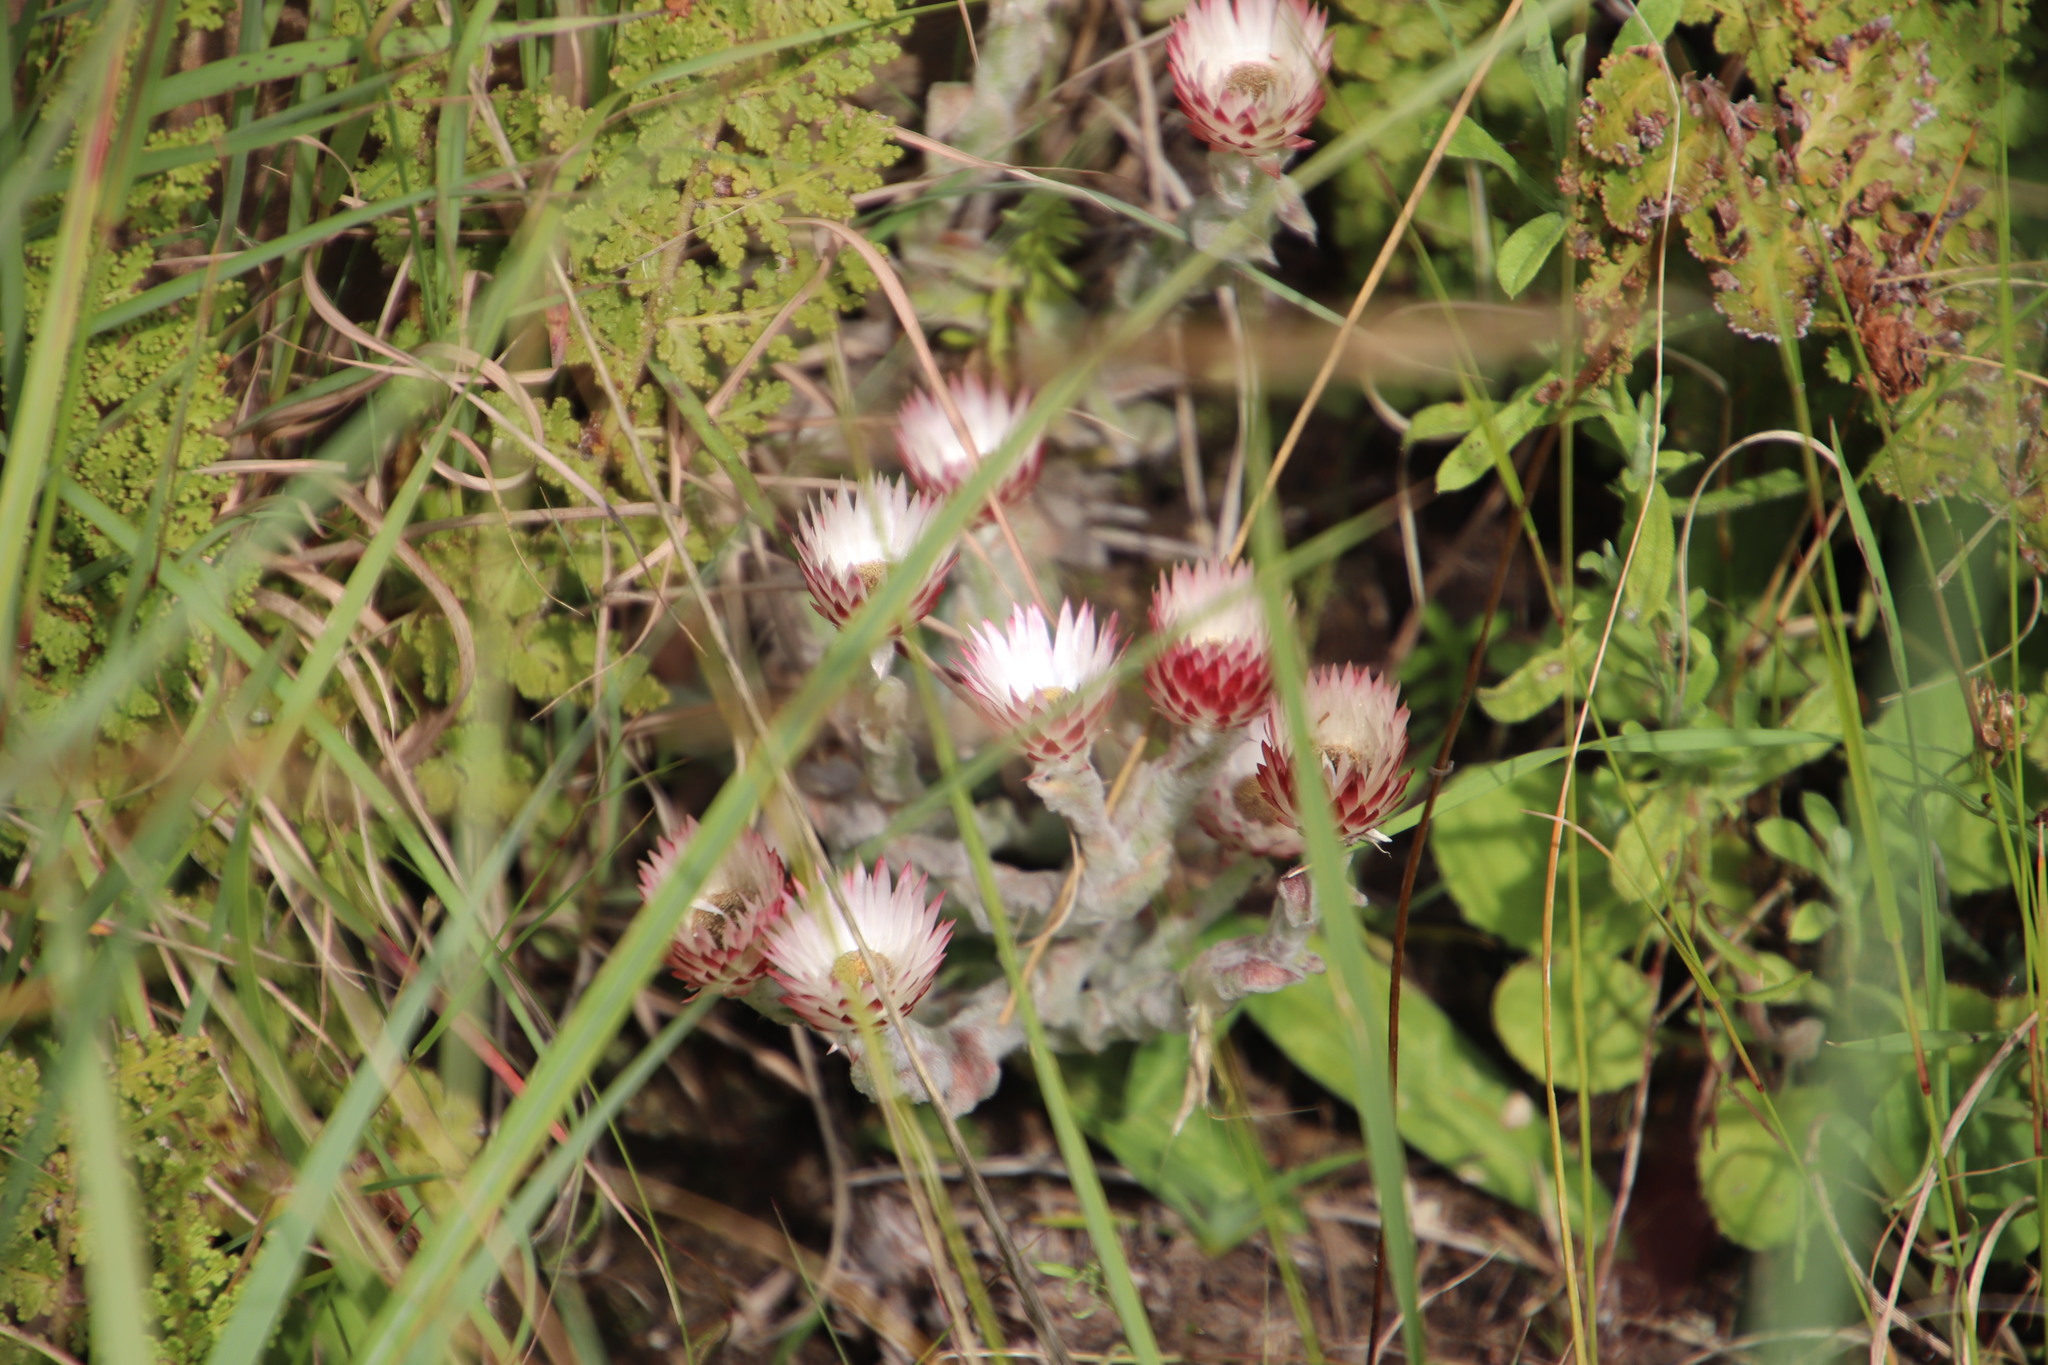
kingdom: Plantae
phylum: Tracheophyta
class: Magnoliopsida
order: Asterales
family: Asteraceae
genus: Helichrysum
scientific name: Helichrysum ecklonis
